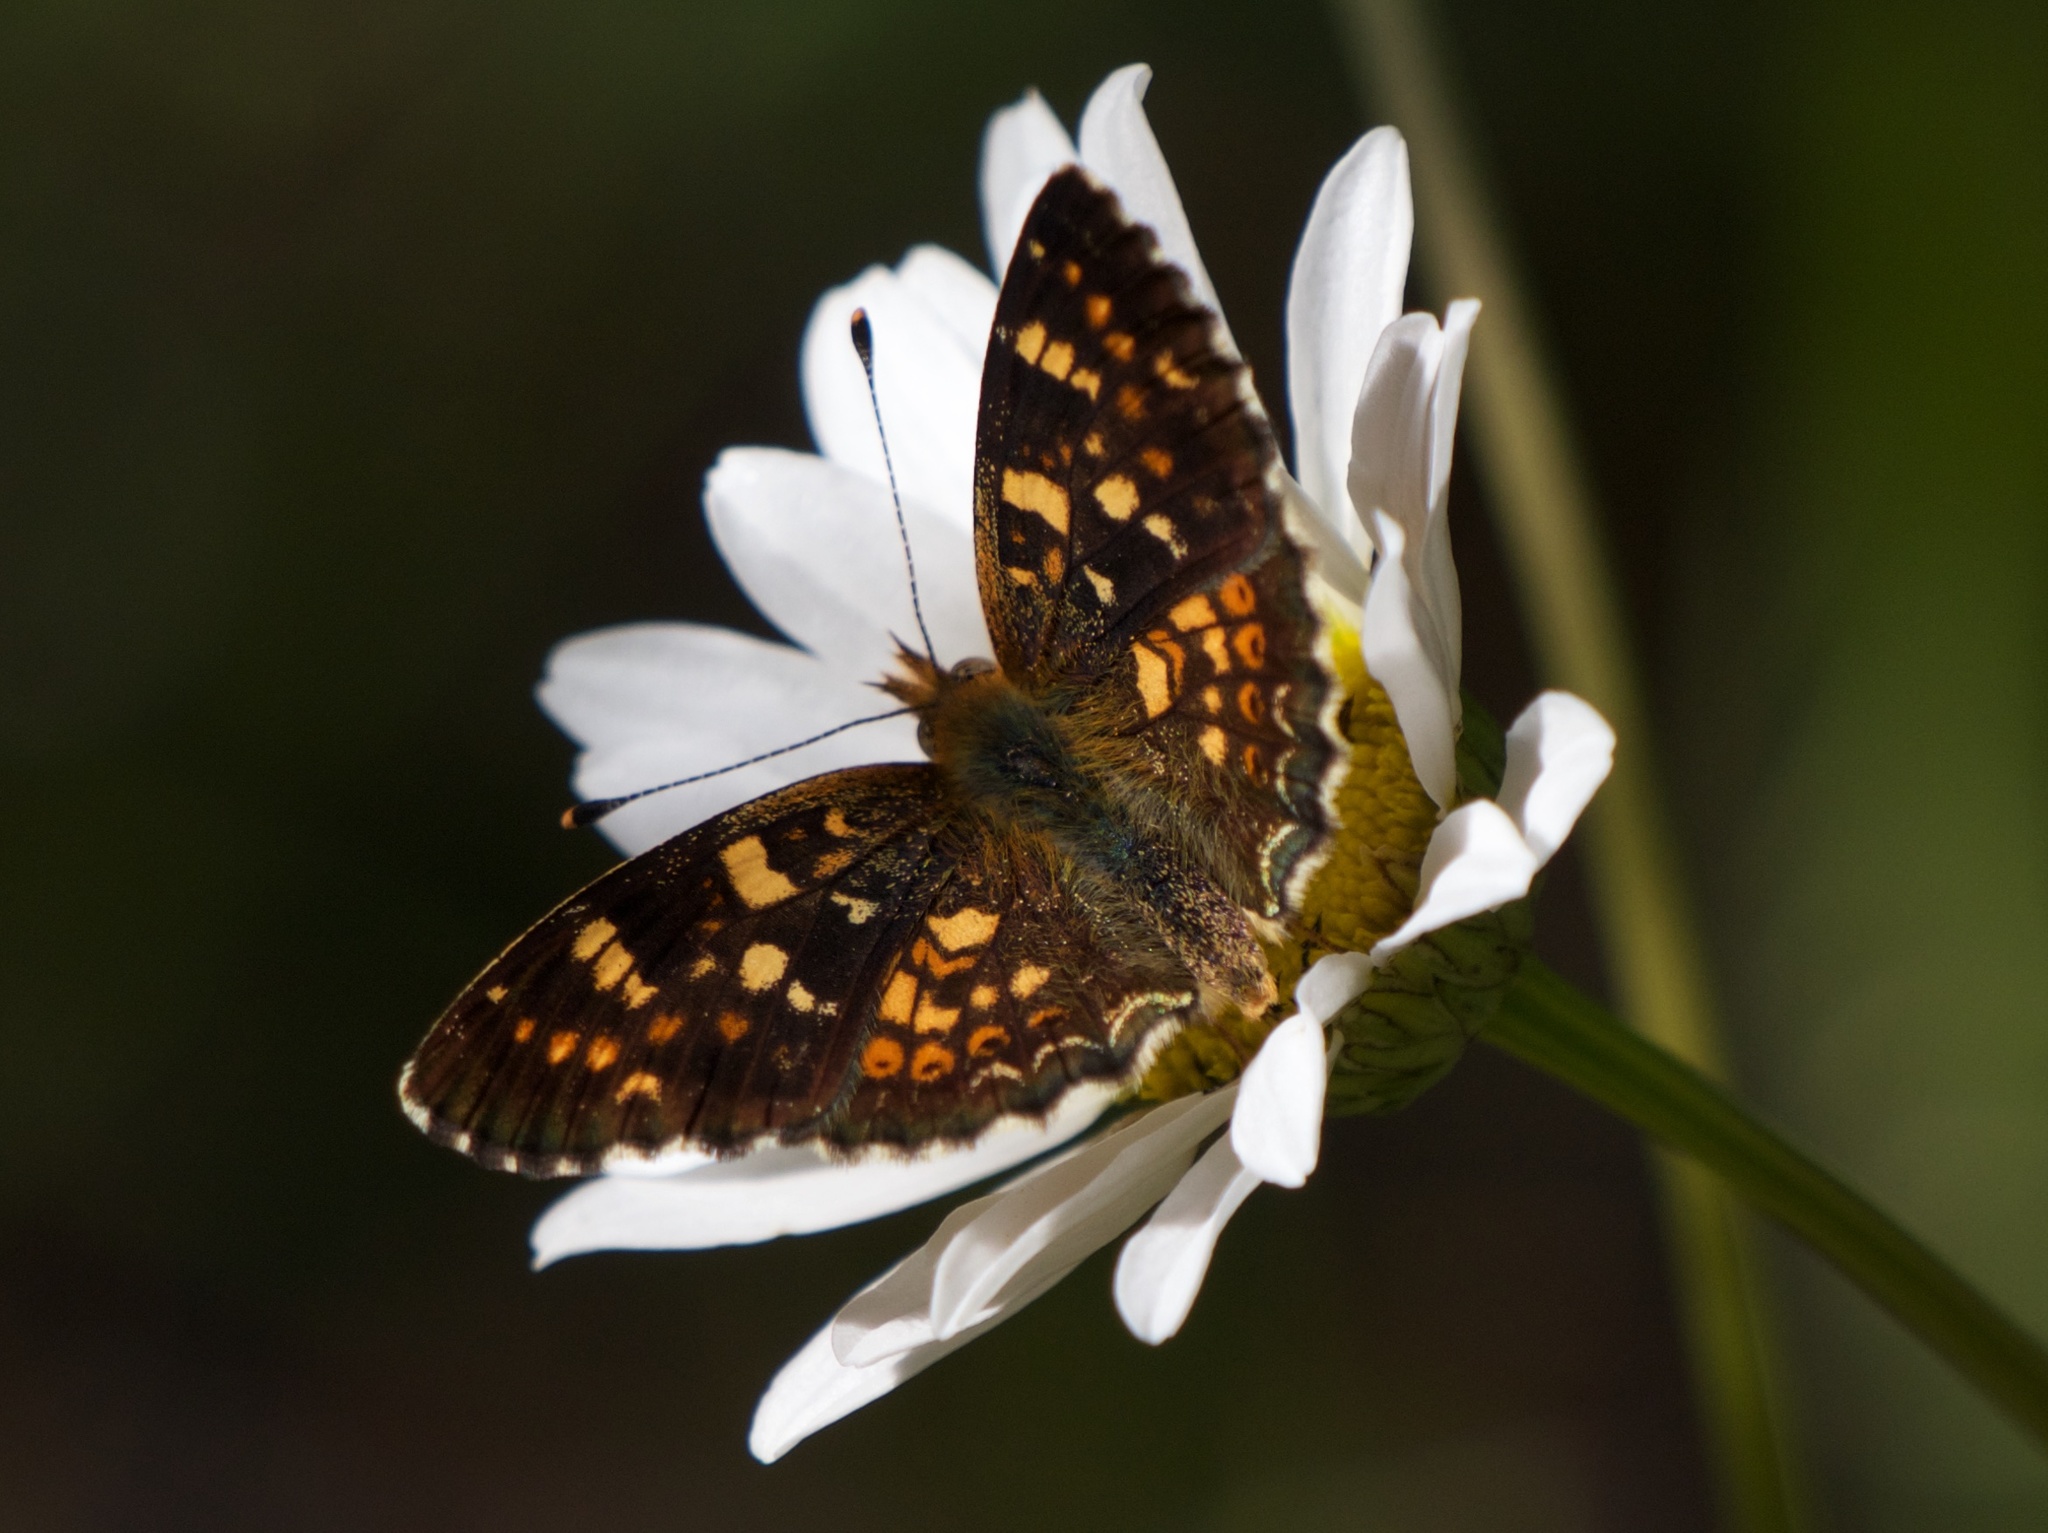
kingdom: Animalia
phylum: Arthropoda
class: Insecta
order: Lepidoptera
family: Nymphalidae
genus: Phyciodes
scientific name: Phyciodes tharos
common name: Pearl crescent
